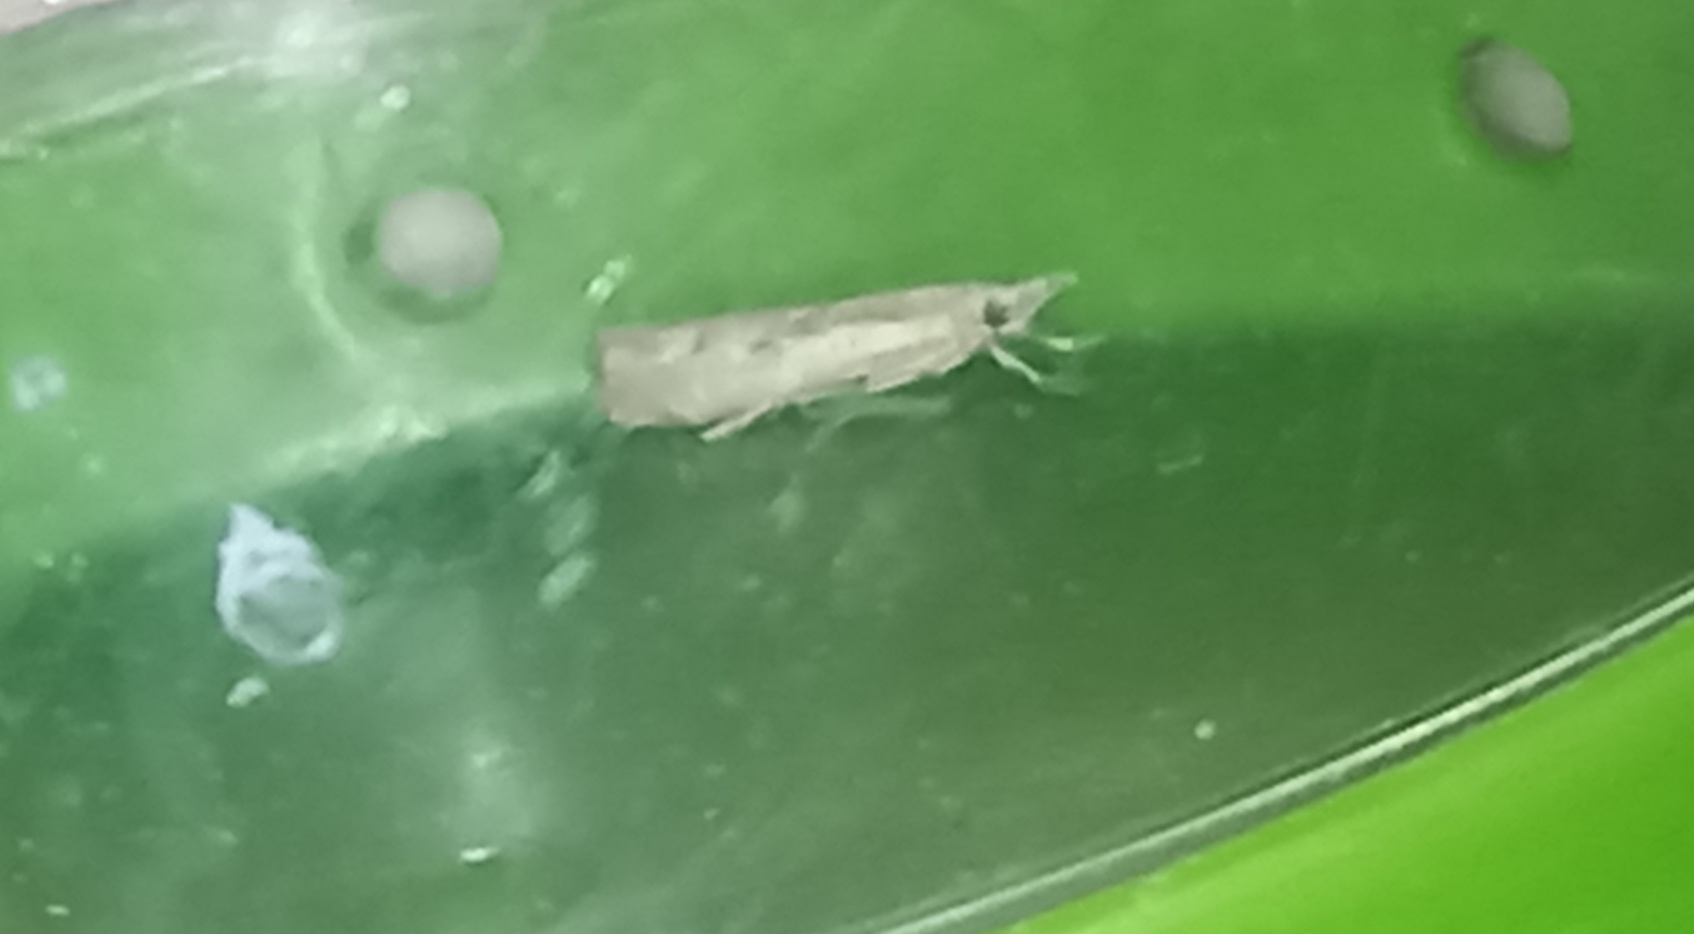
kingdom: Animalia
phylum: Arthropoda
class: Insecta
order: Lepidoptera
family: Crambidae
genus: Agriphila
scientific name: Agriphila tolli
